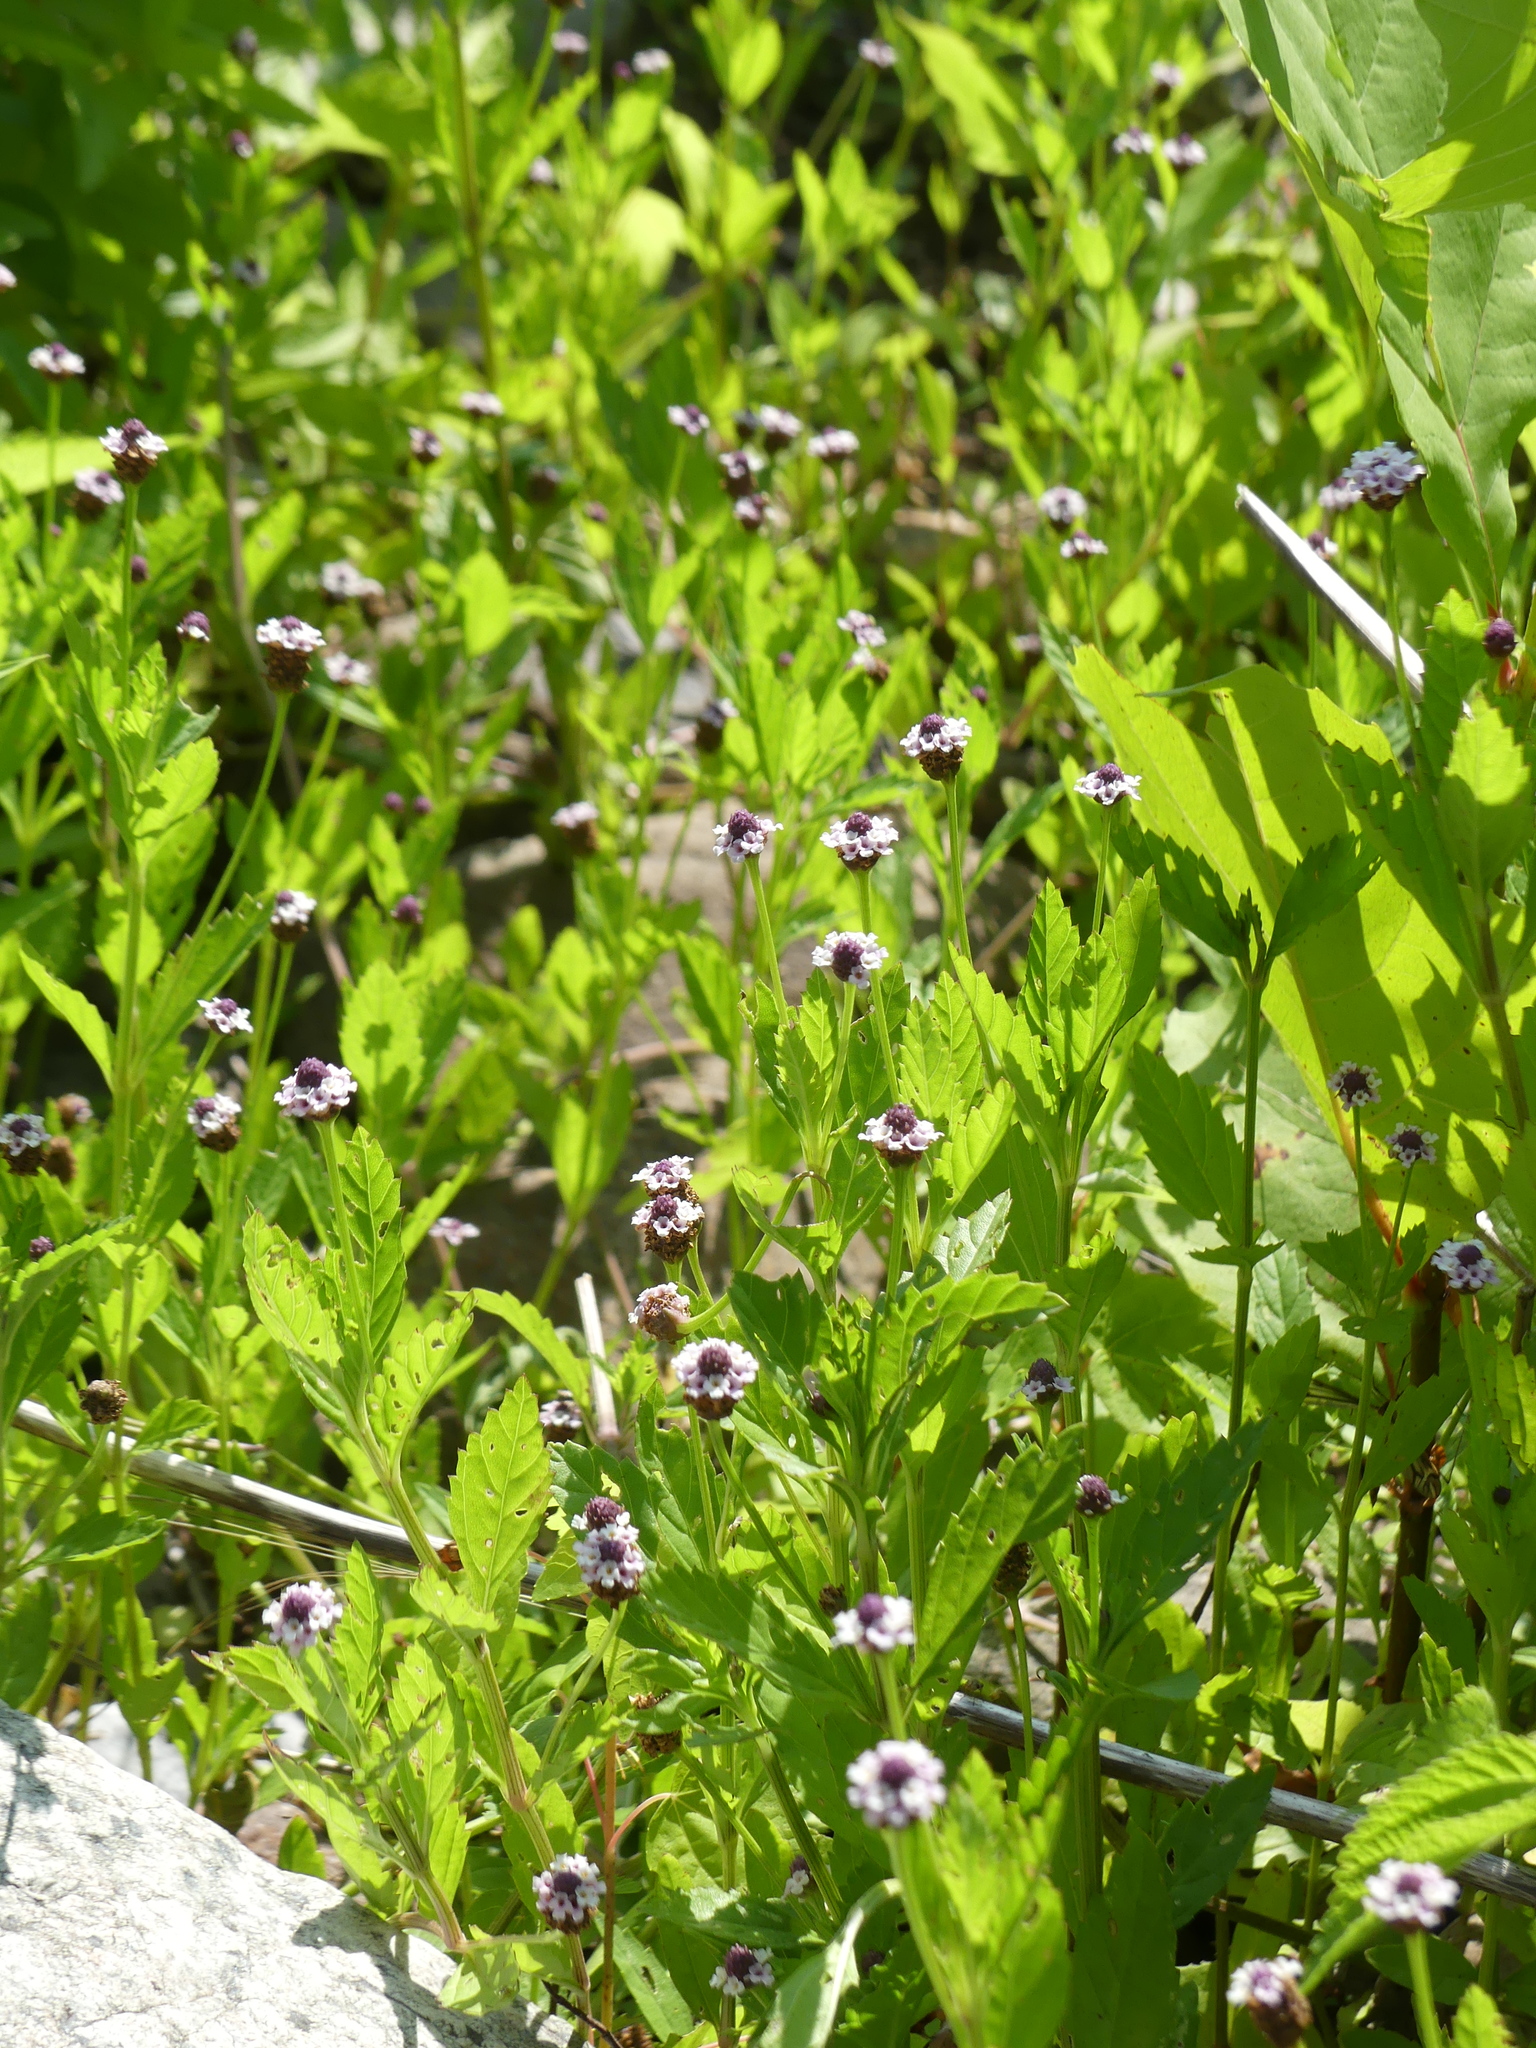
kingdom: Plantae
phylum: Tracheophyta
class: Magnoliopsida
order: Lamiales
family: Verbenaceae
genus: Phyla
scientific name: Phyla lanceolata
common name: Northern fogfruit
